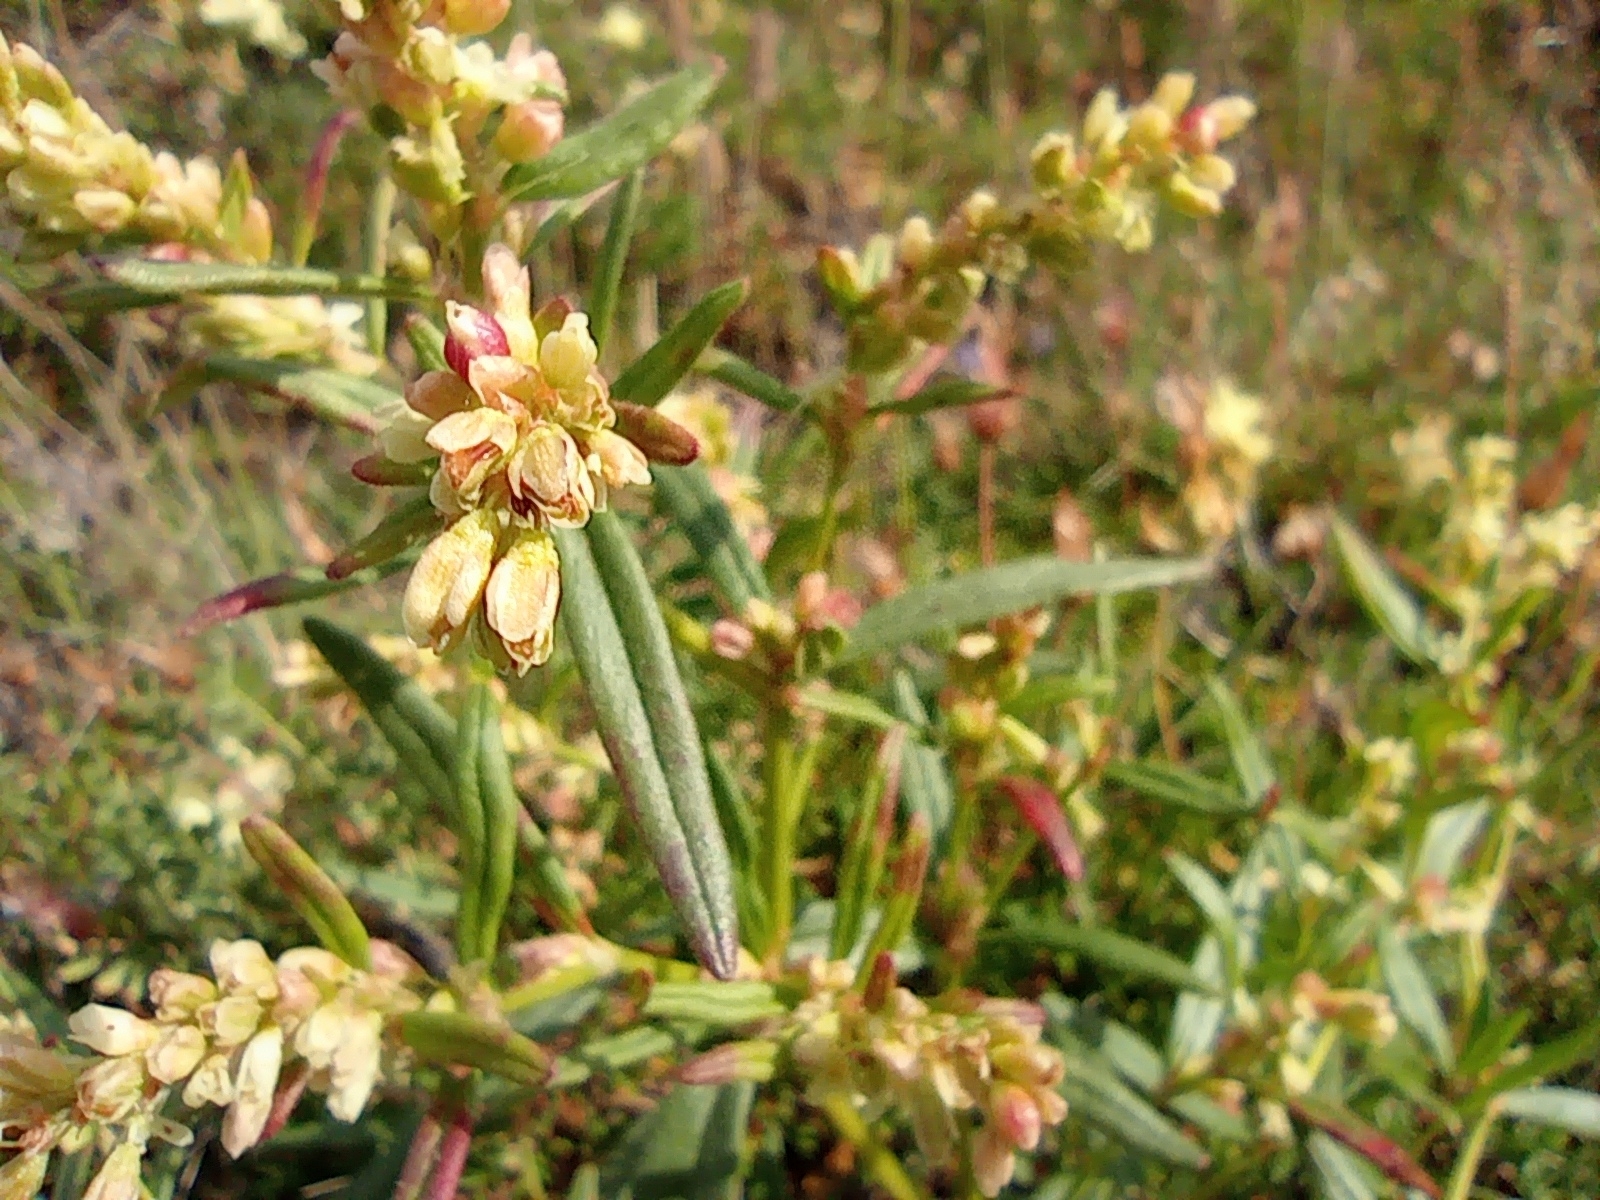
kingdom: Plantae
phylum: Tracheophyta
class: Magnoliopsida
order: Ericales
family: Ericaceae
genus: Rhododendron
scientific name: Rhododendron tomentosum
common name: Marsh labrador tea
